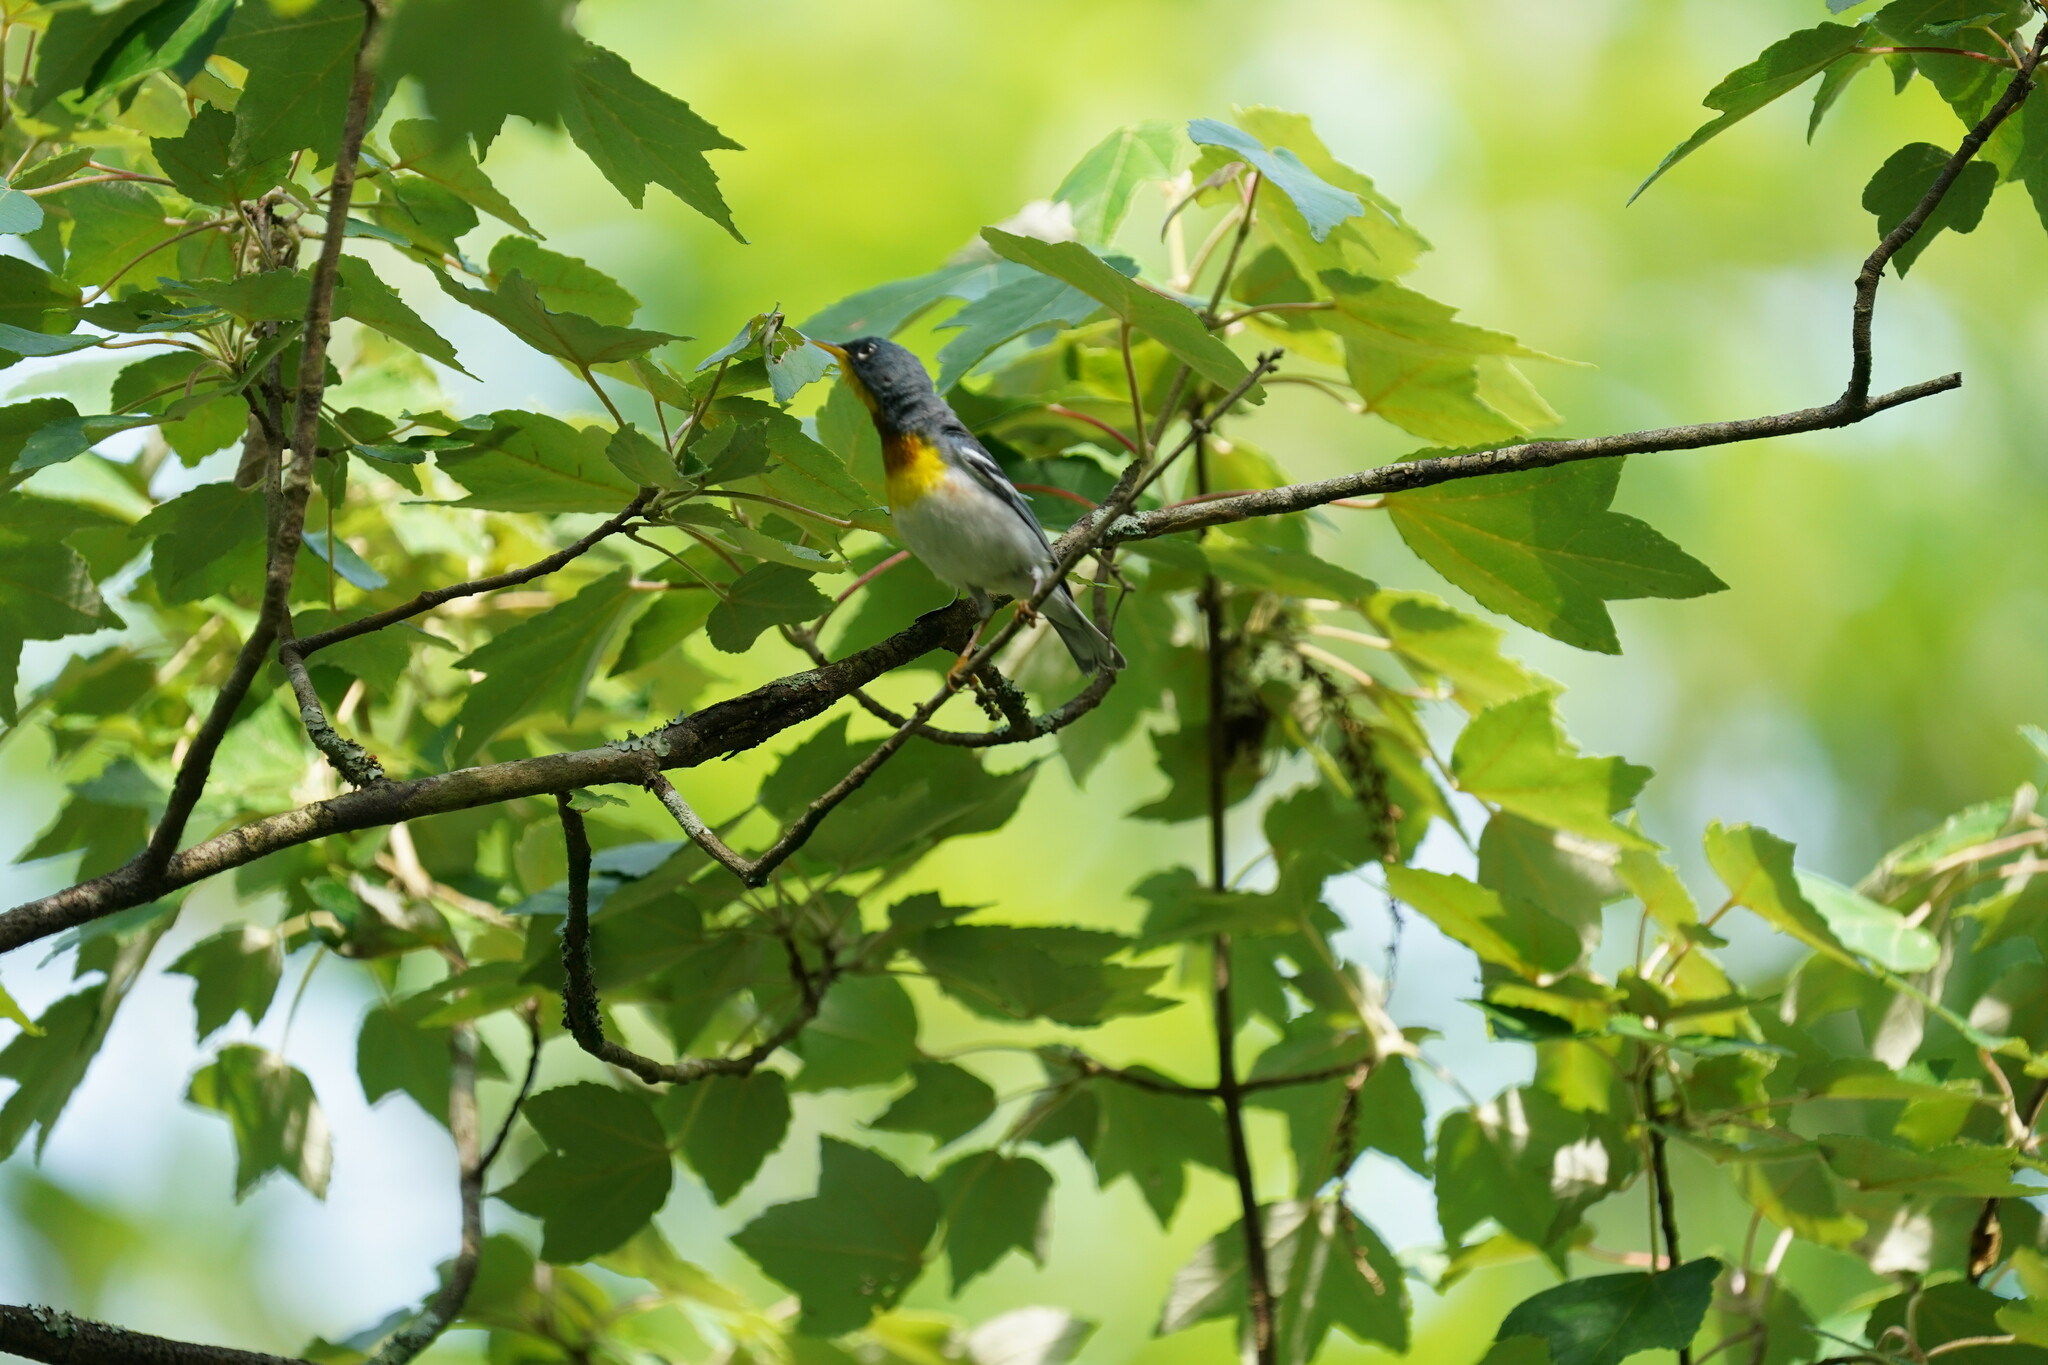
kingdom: Animalia
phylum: Chordata
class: Aves
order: Passeriformes
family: Parulidae
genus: Setophaga
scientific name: Setophaga americana
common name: Northern parula
